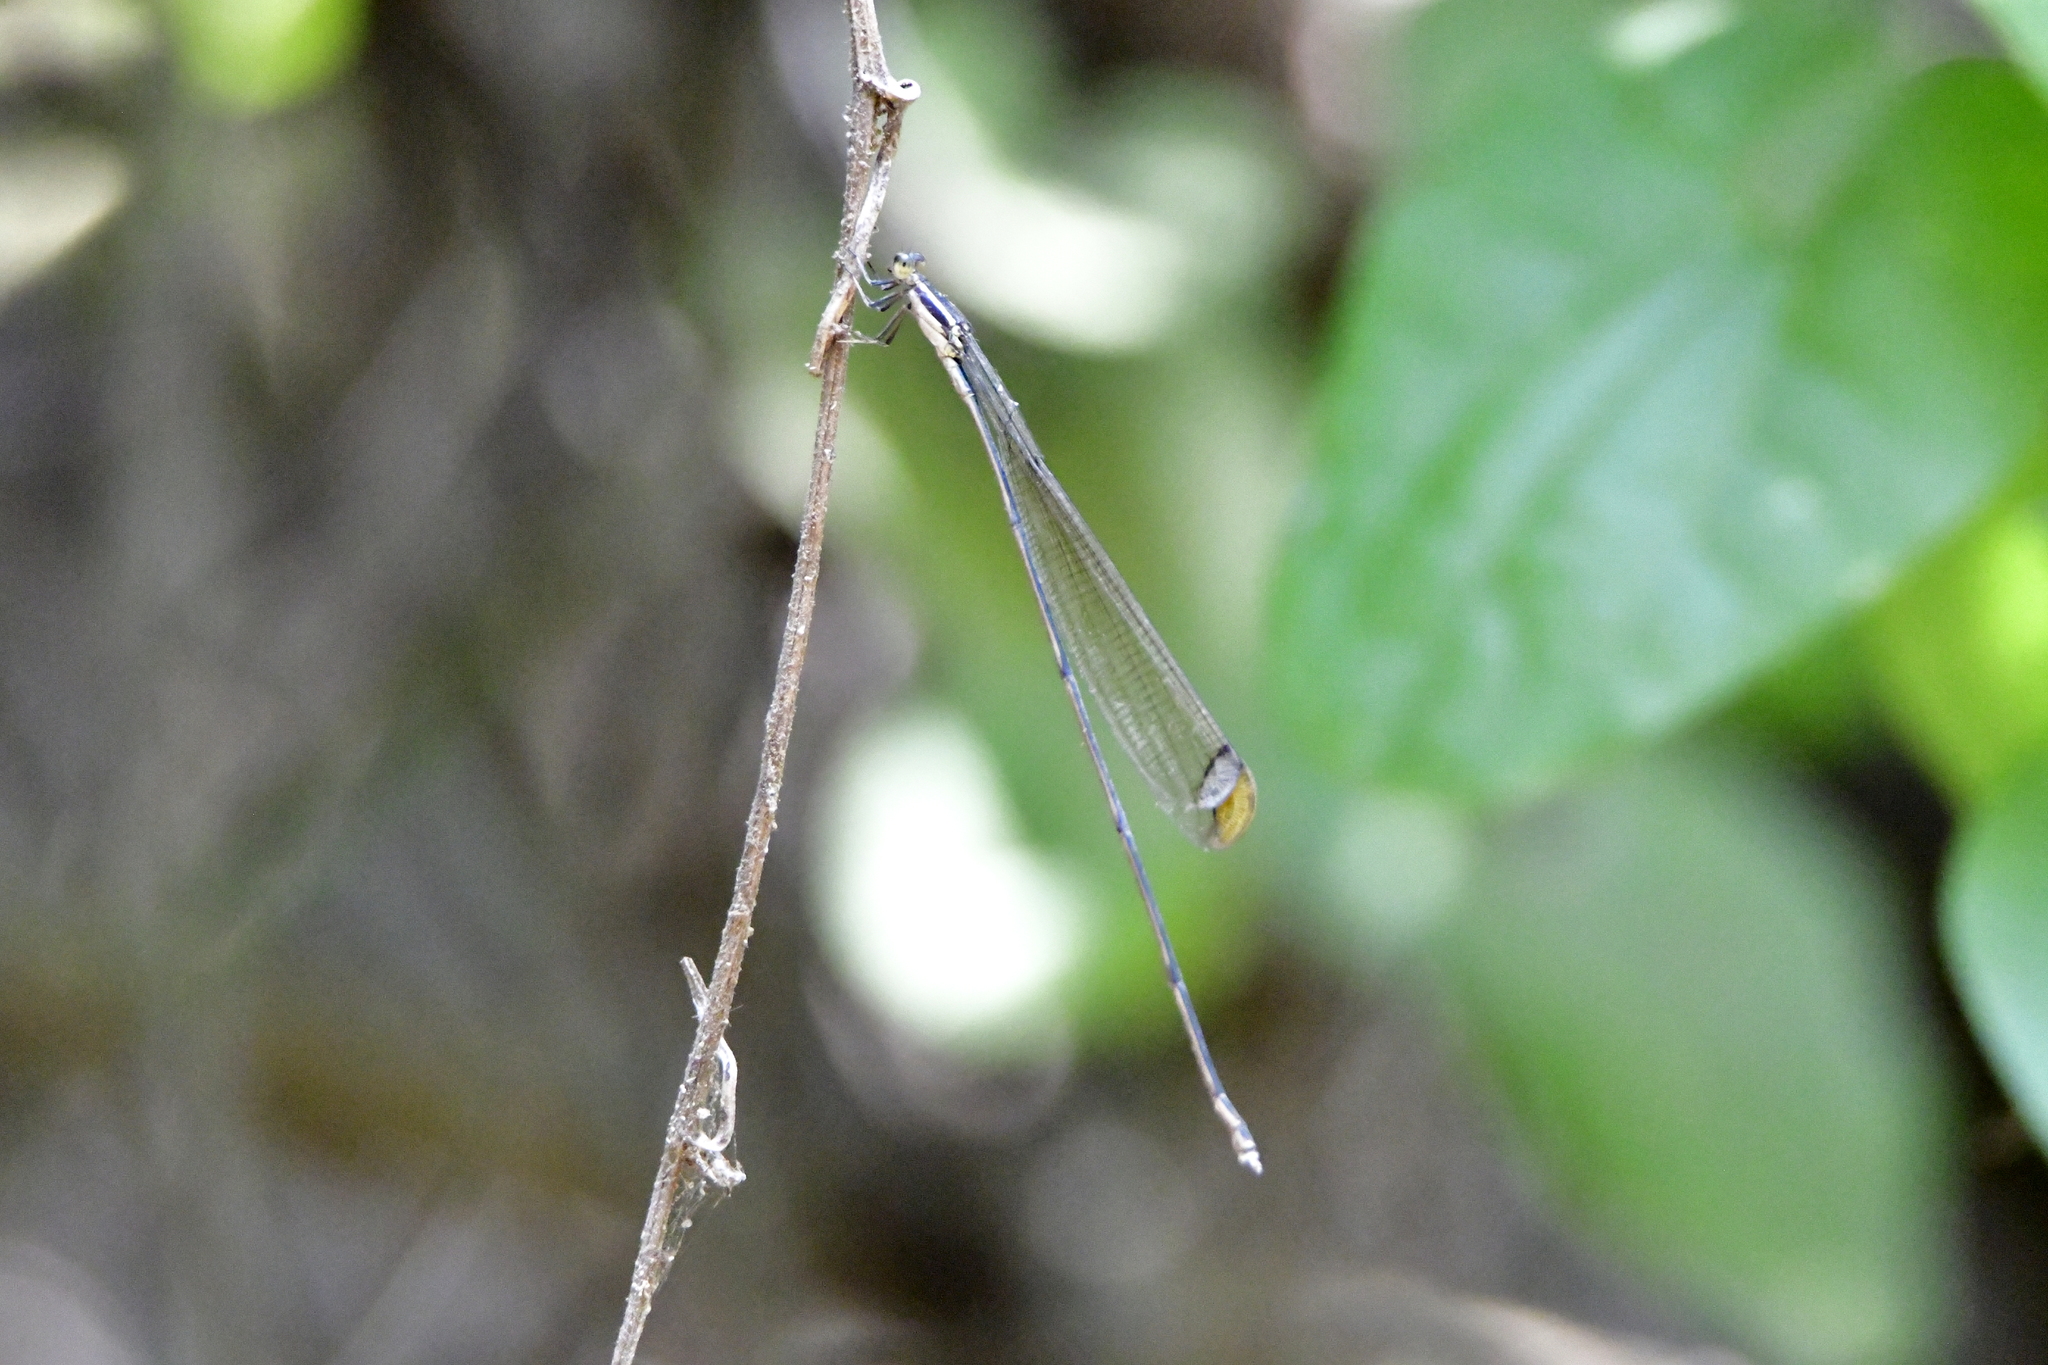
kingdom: Animalia
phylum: Arthropoda
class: Insecta
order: Odonata
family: Coenagrionidae
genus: Mecistogaster
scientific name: Mecistogaster ornata
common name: Ornate helicopter
